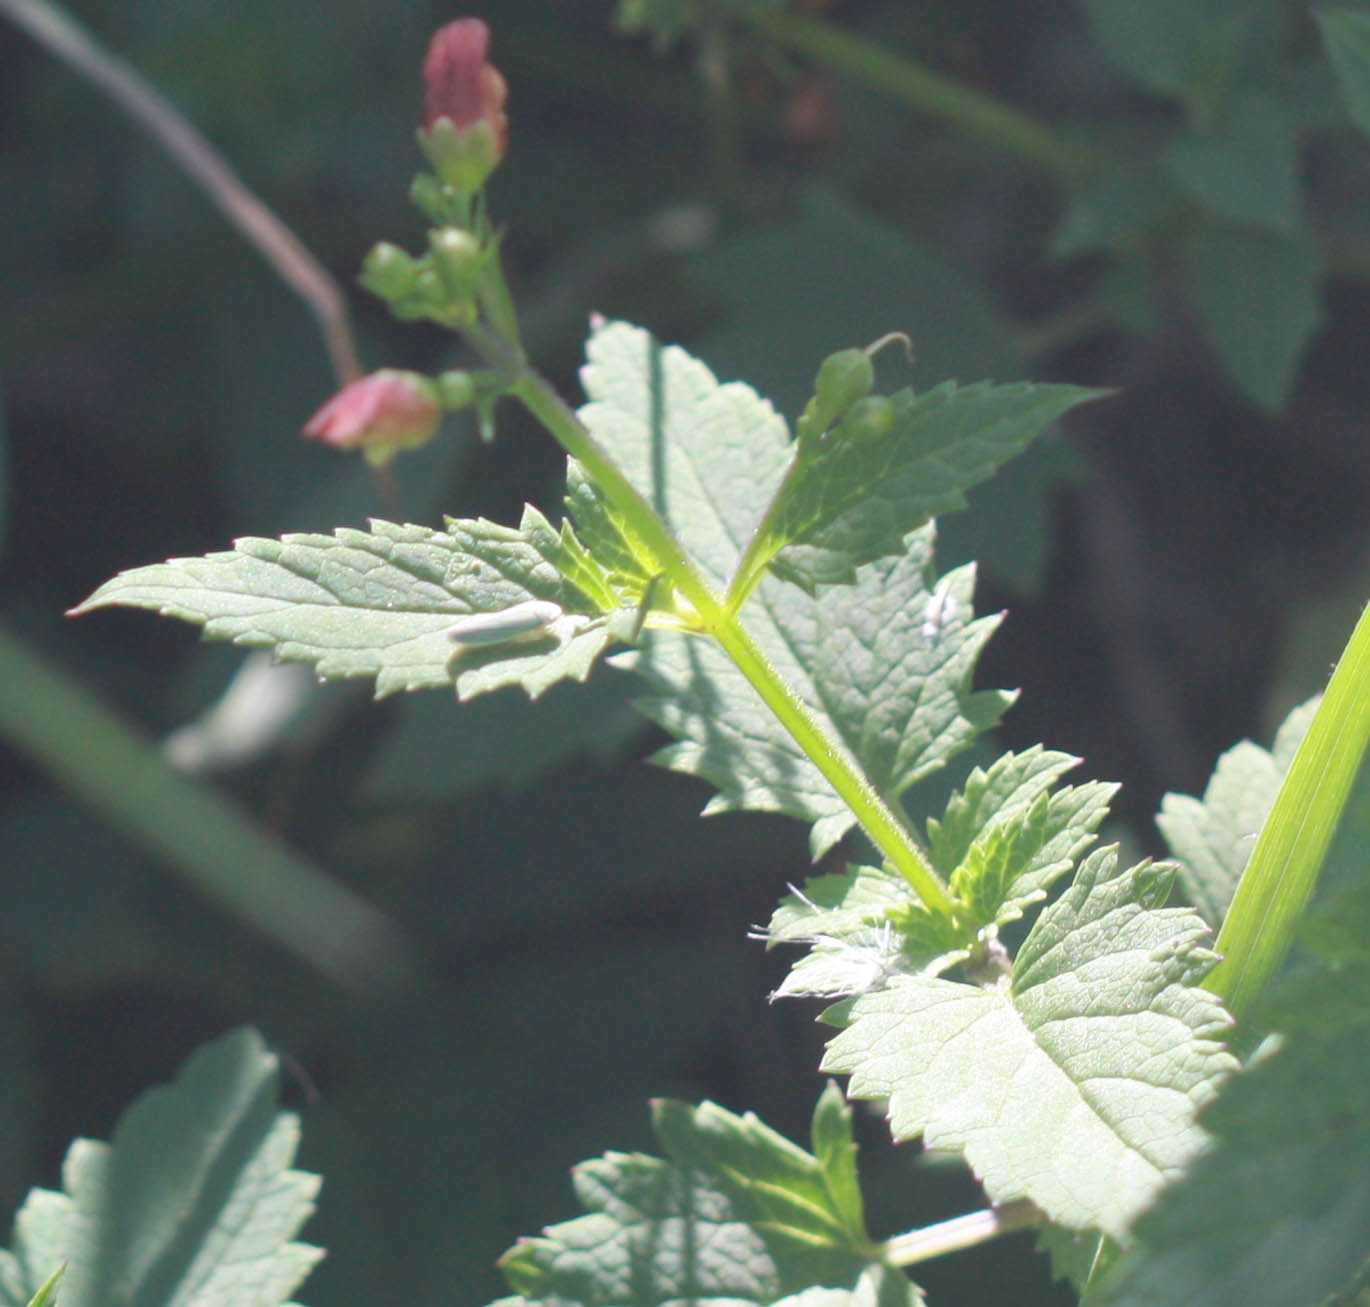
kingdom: Plantae
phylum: Tracheophyta
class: Magnoliopsida
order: Lamiales
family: Scrophulariaceae
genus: Scrophularia
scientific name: Scrophularia californica
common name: California figwort
